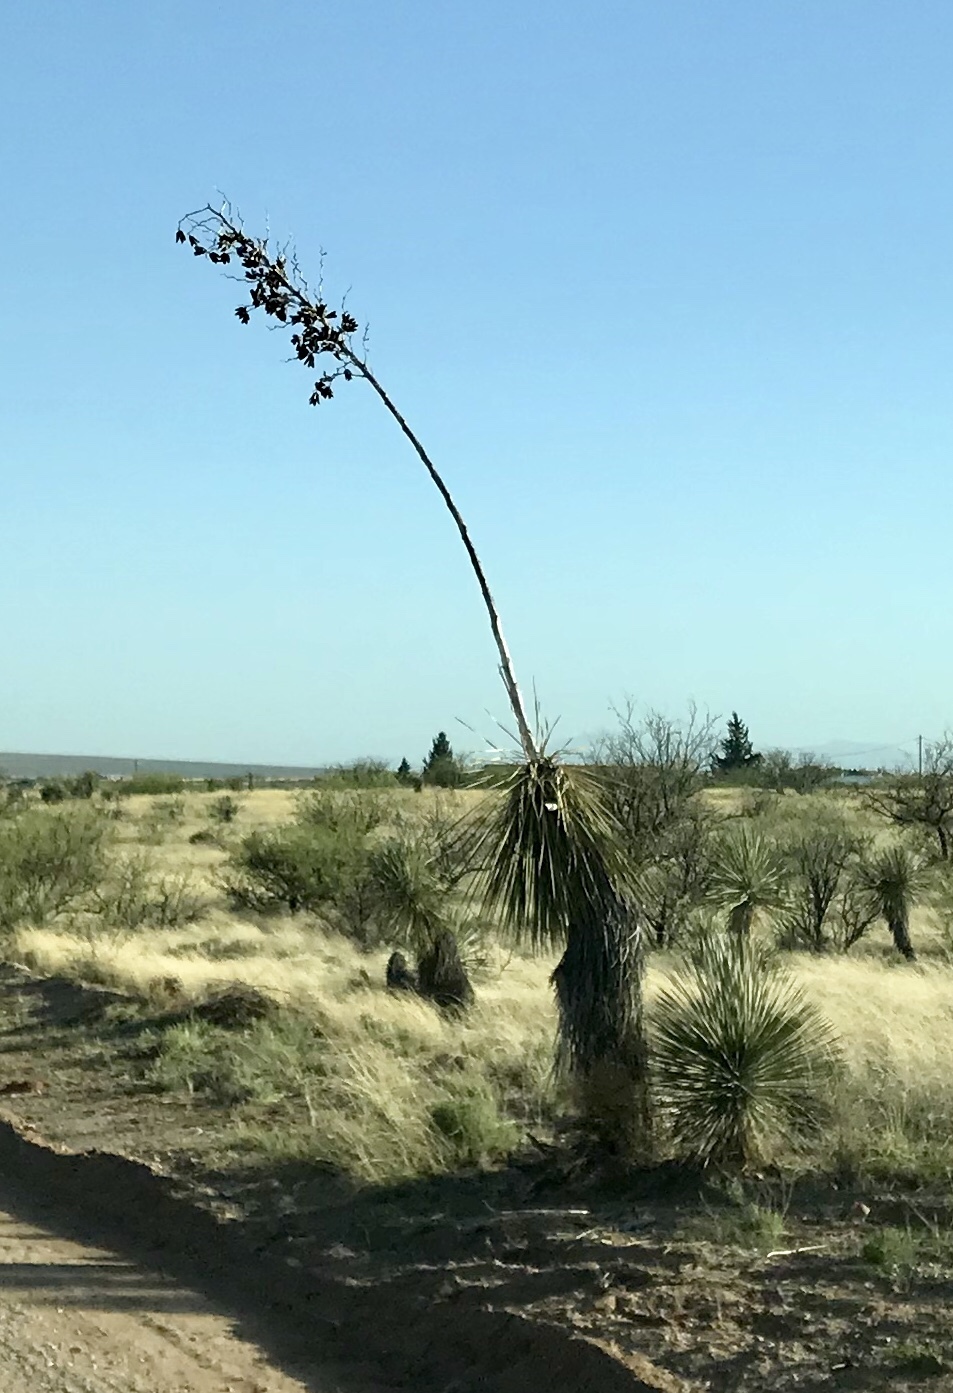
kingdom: Plantae
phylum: Tracheophyta
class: Liliopsida
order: Asparagales
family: Asparagaceae
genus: Yucca
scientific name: Yucca elata
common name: Palmella
